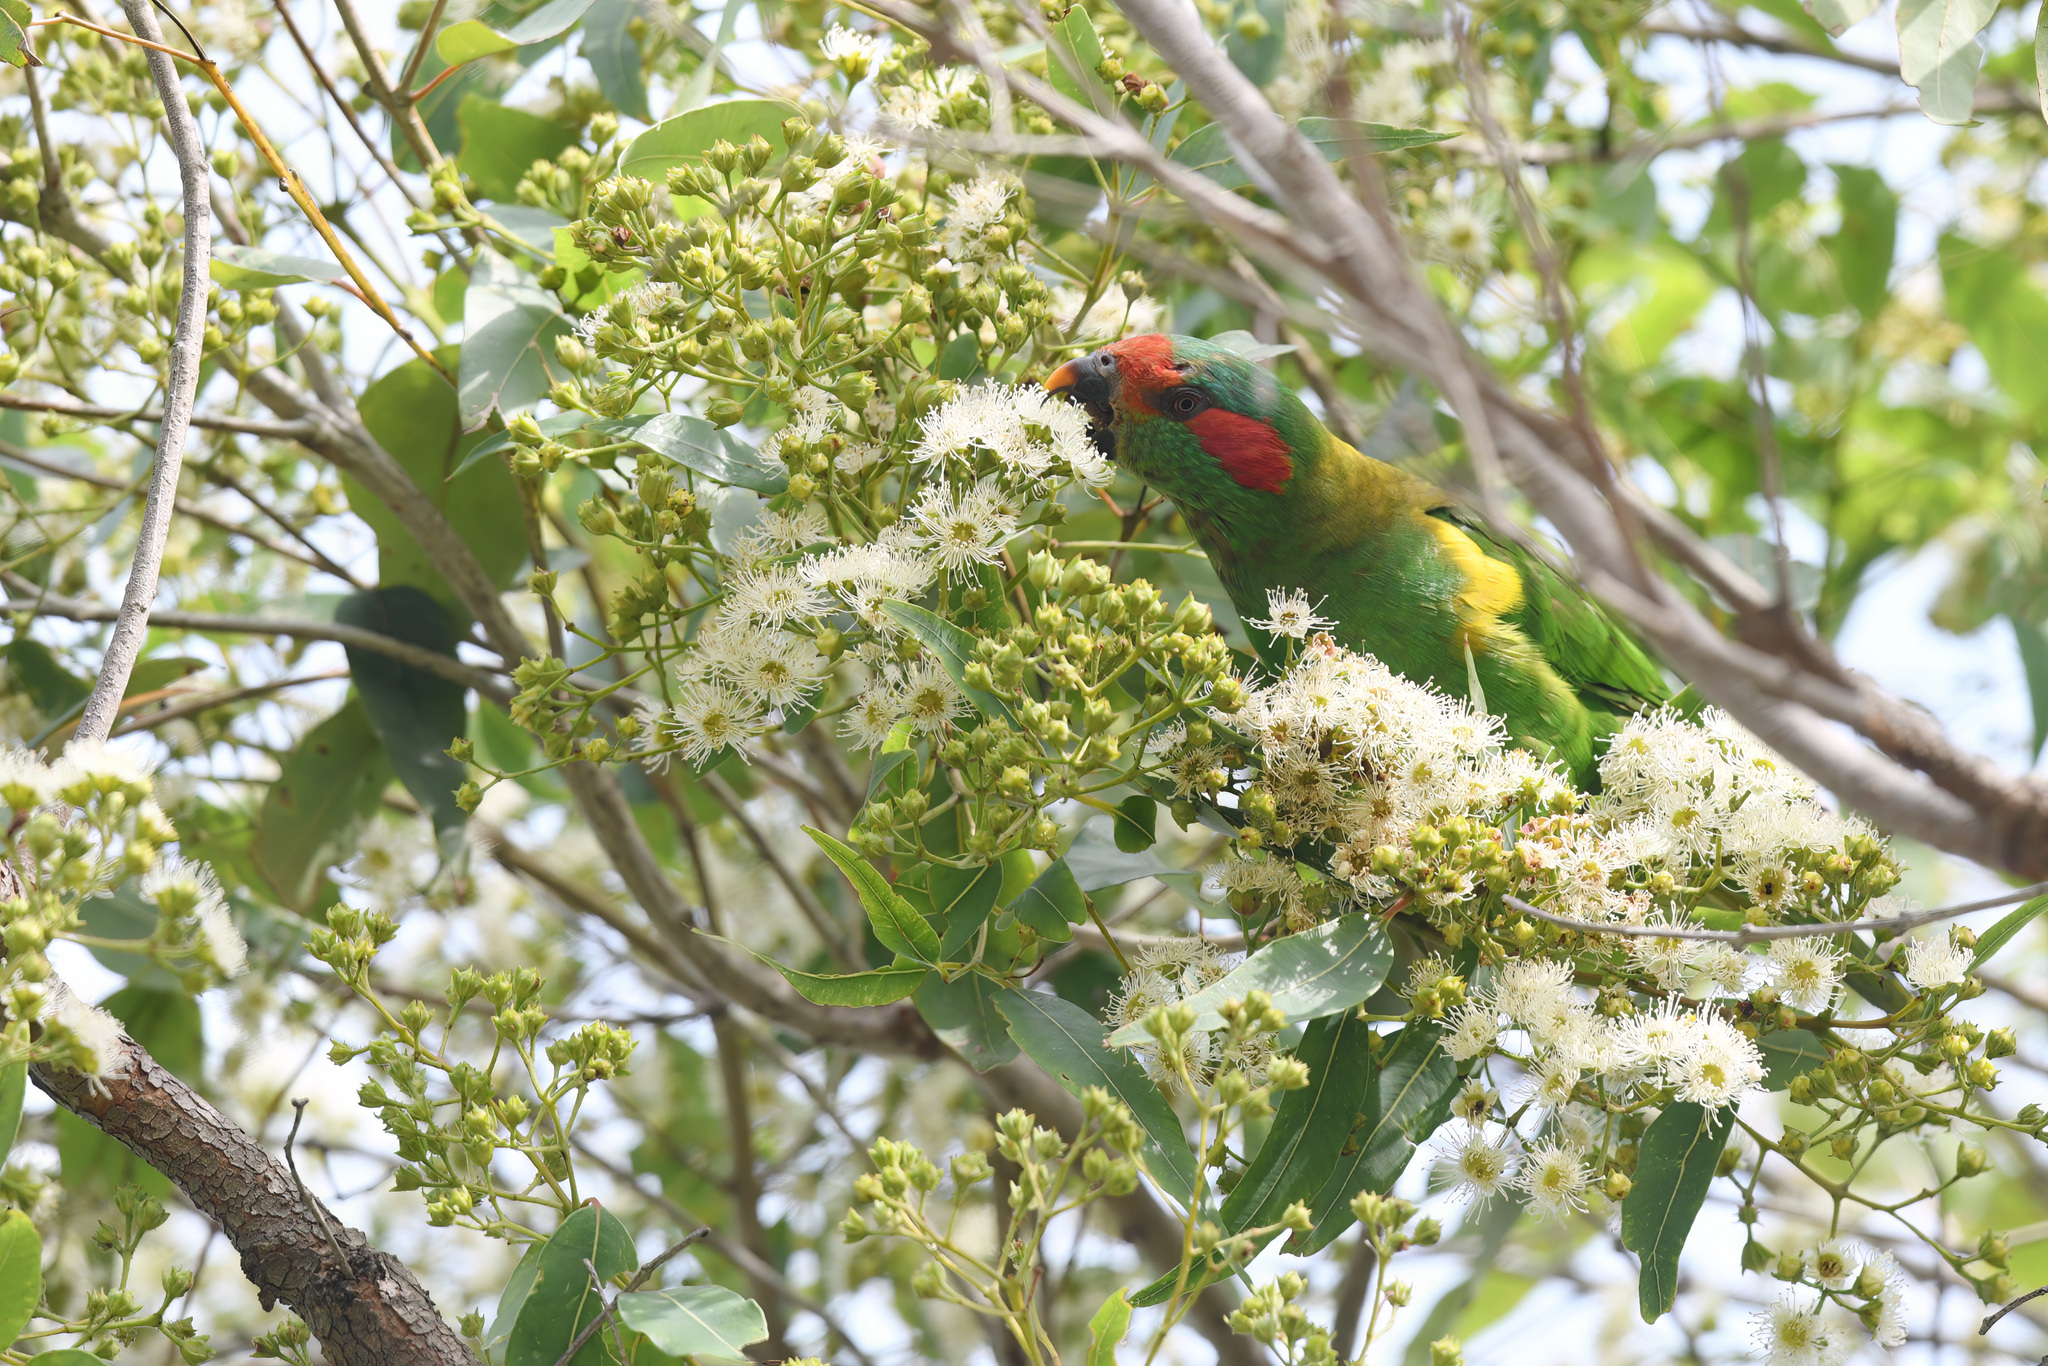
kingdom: Animalia
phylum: Chordata
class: Aves
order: Psittaciformes
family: Psittacidae
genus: Glossopsitta
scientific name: Glossopsitta concinna
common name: Musk lorikeet
